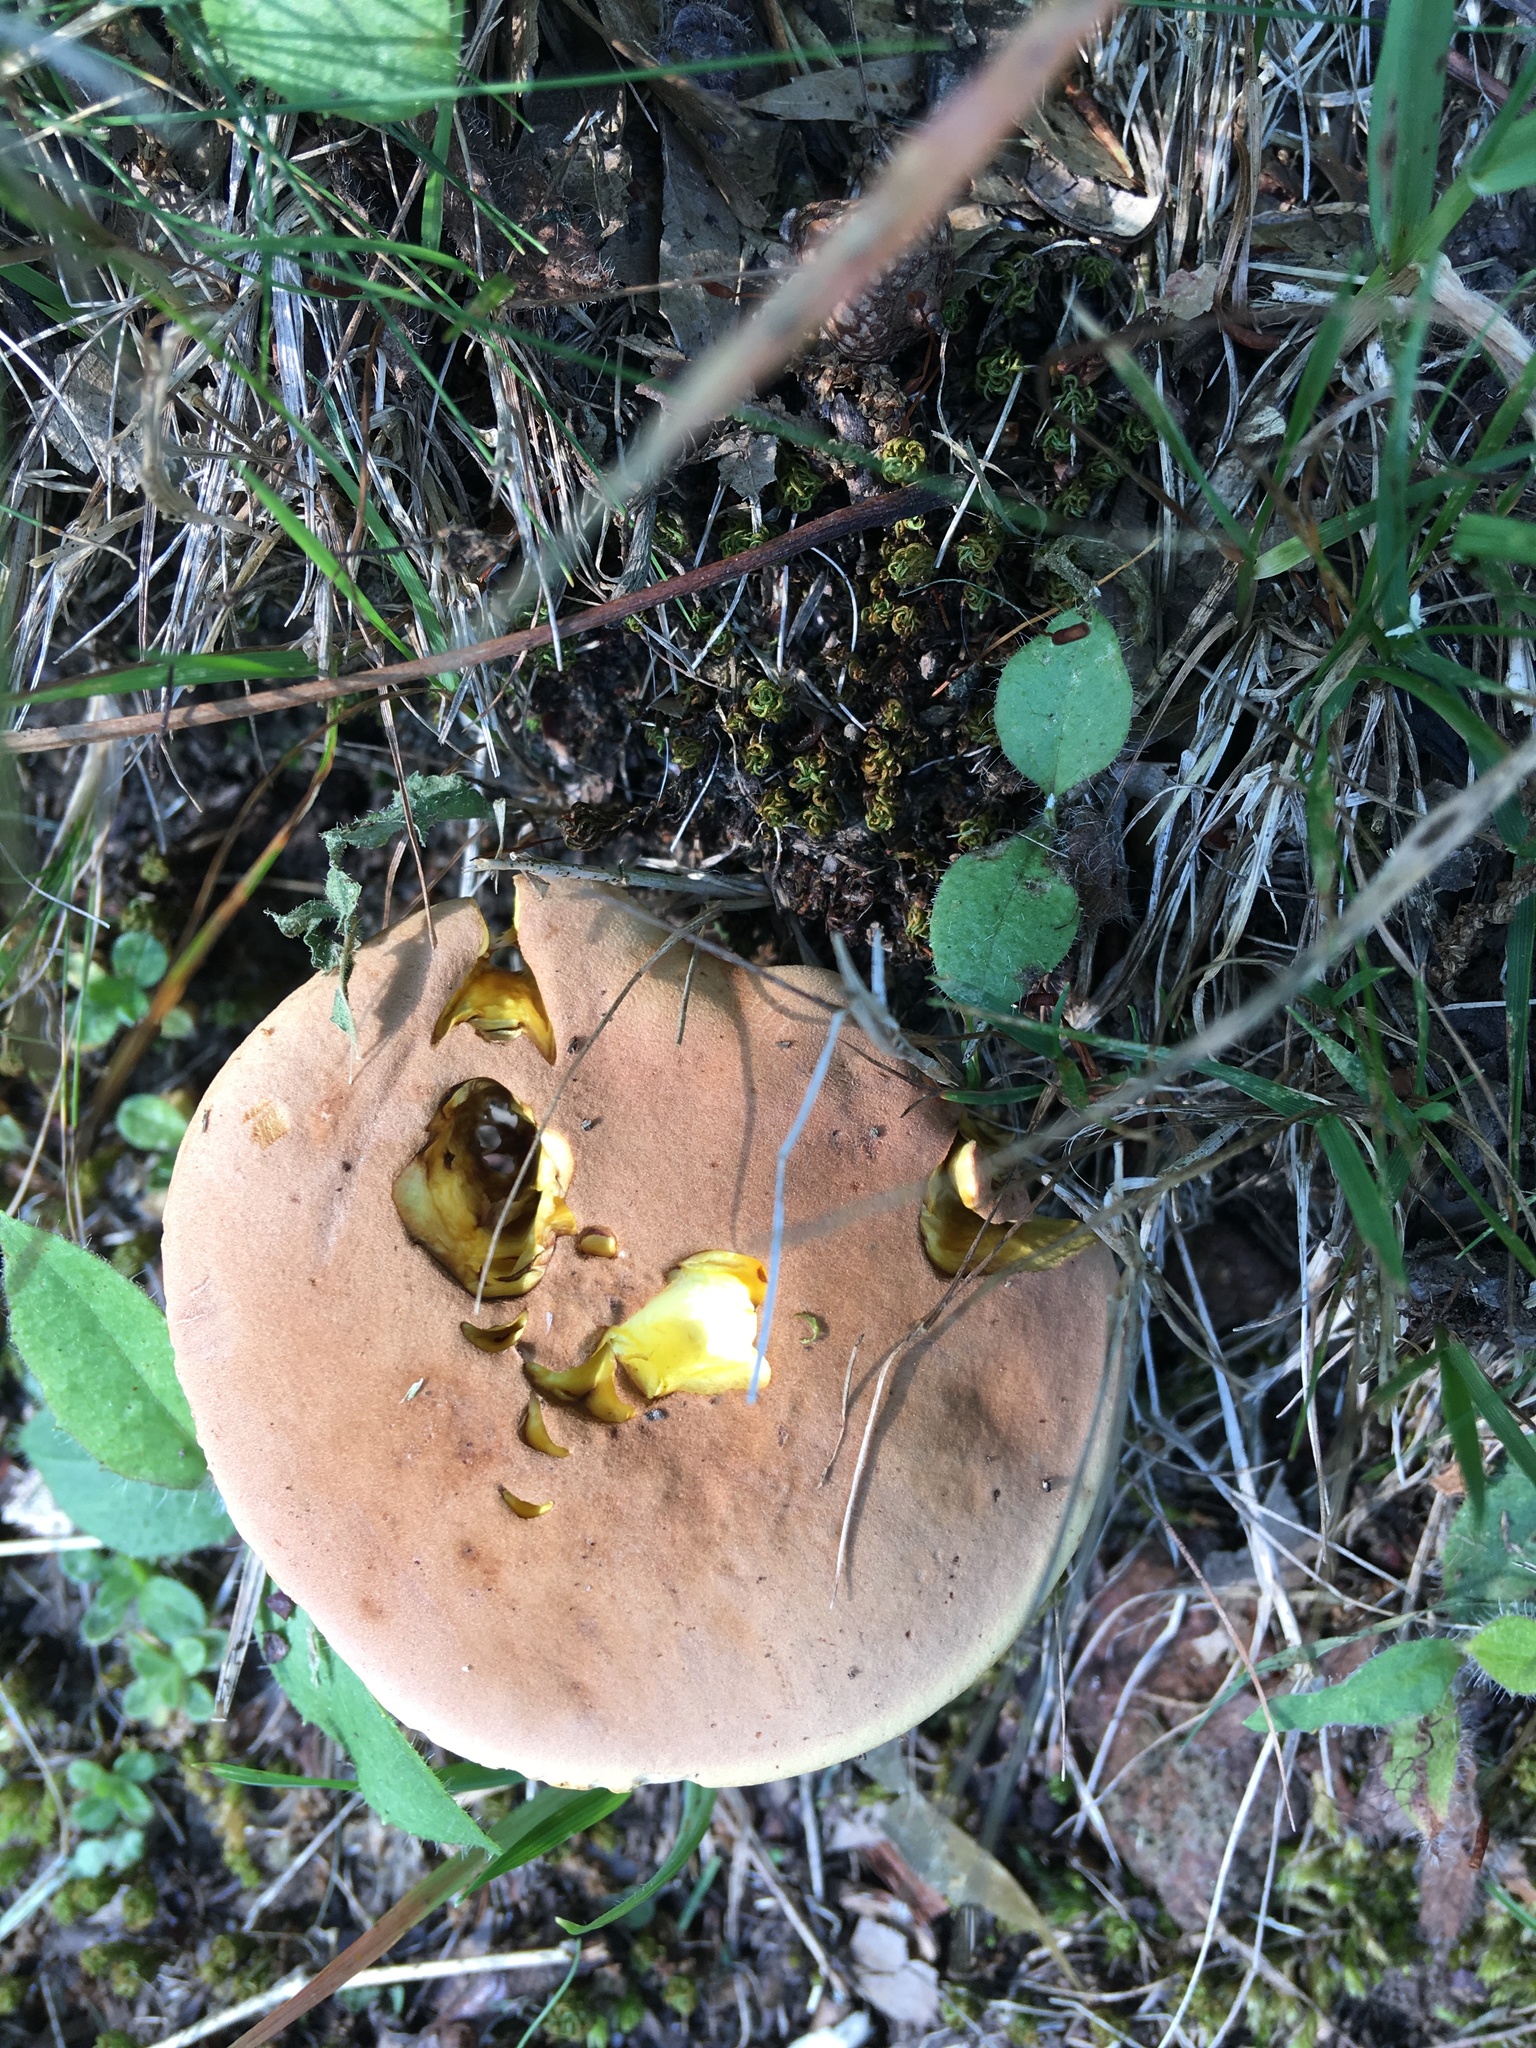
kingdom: Fungi
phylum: Basidiomycota
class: Agaricomycetes
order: Boletales
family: Boletaceae
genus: Lanmaoa
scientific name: Lanmaoa pseudosensibilis
